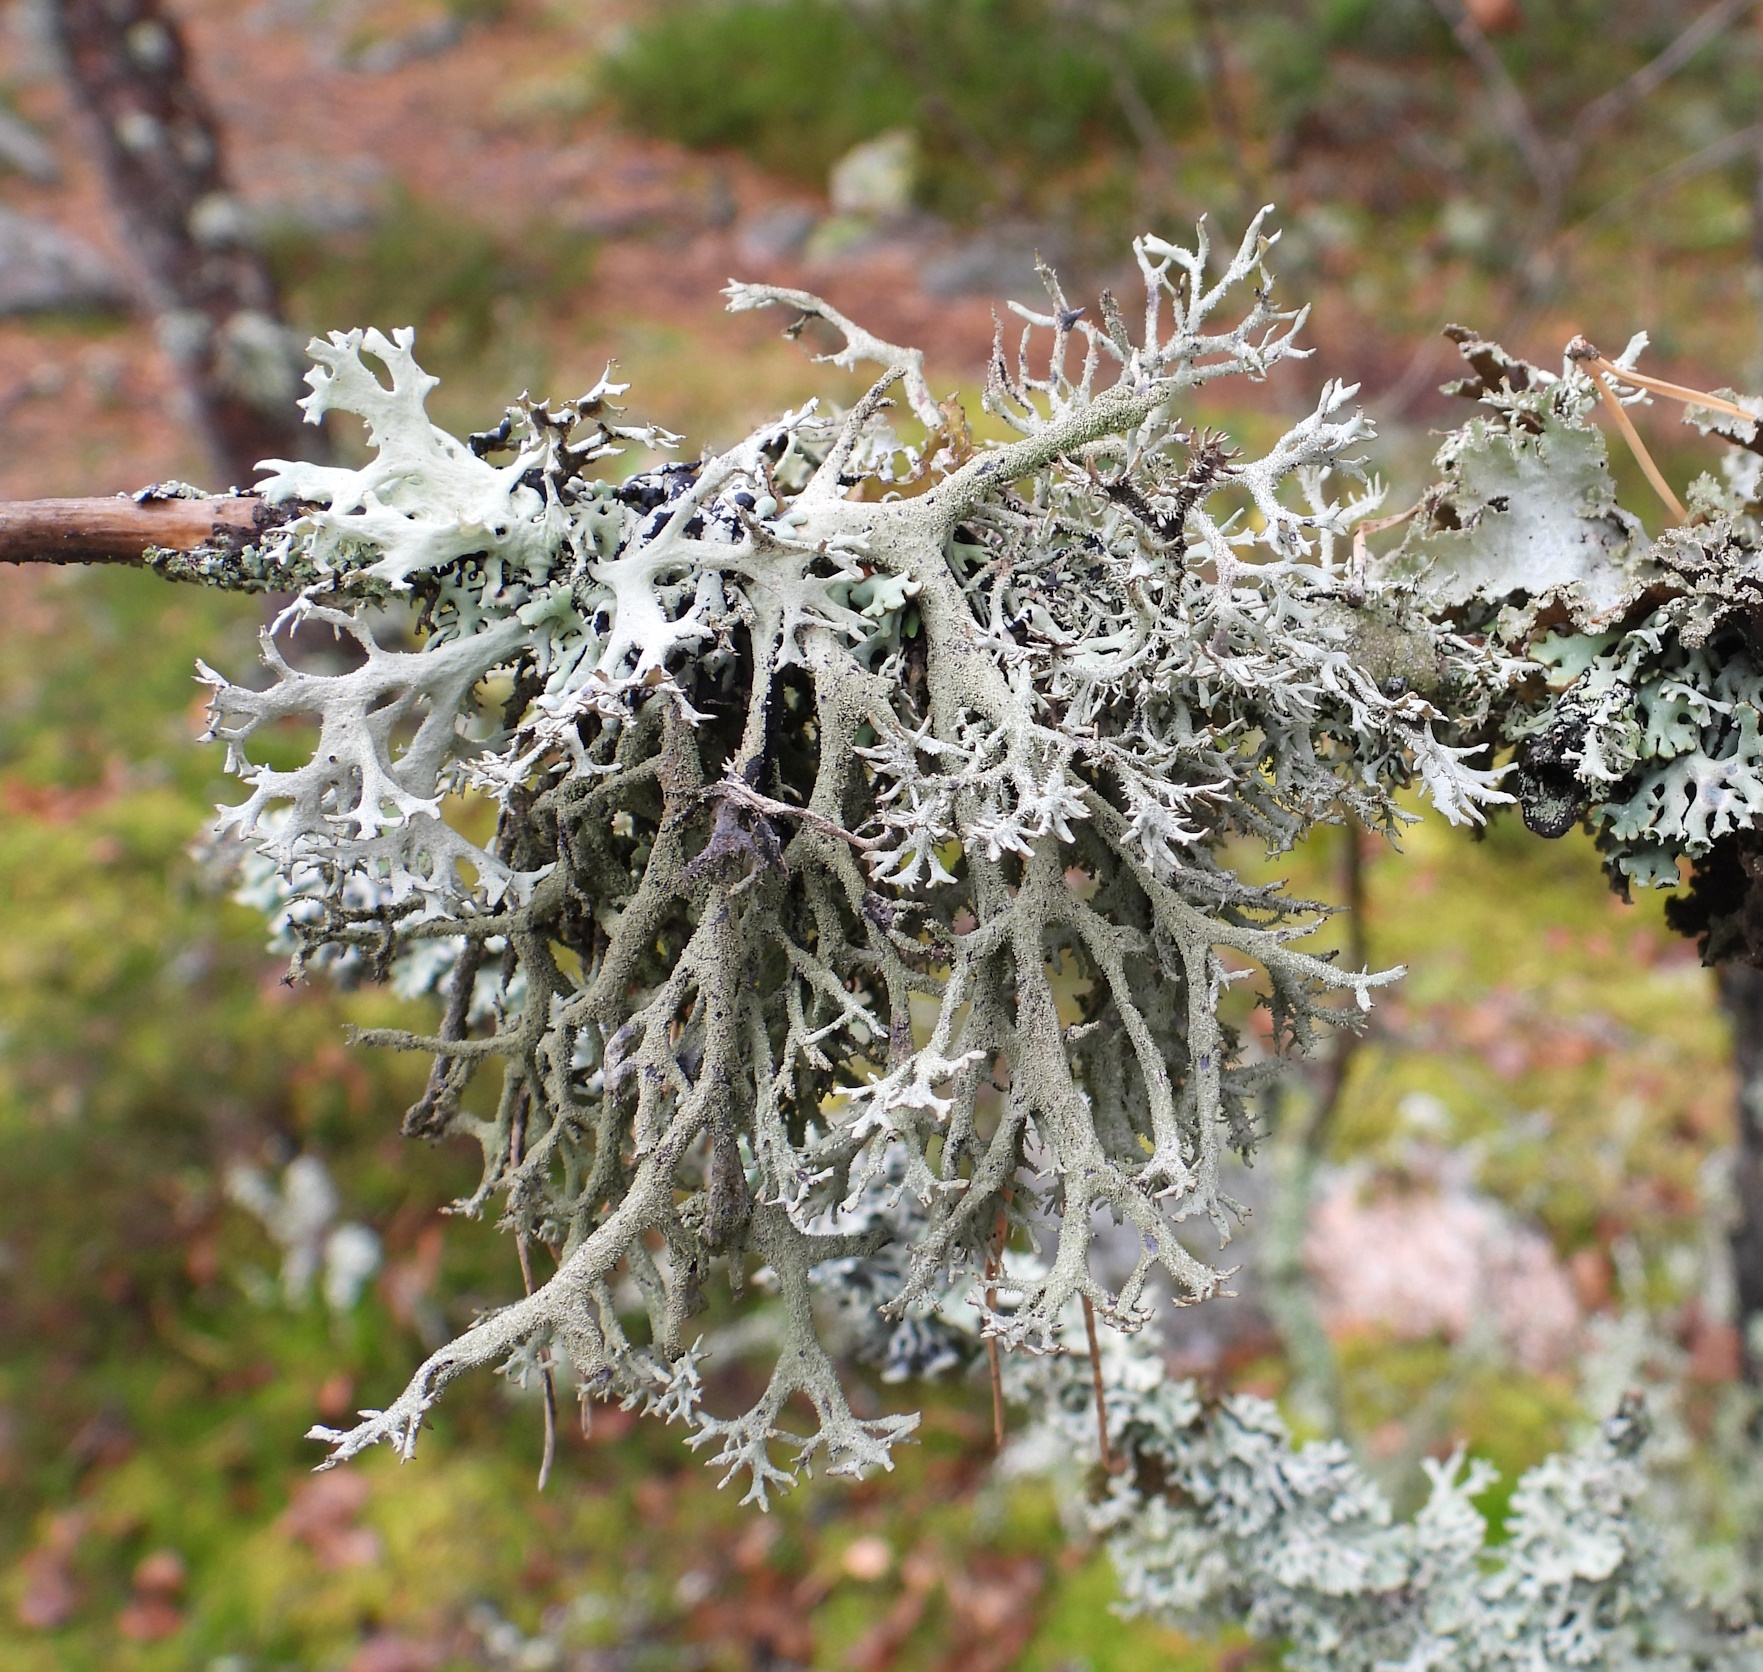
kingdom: Fungi
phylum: Ascomycota
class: Lecanoromycetes
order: Lecanorales
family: Parmeliaceae
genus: Pseudevernia
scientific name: Pseudevernia furfuracea
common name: Tree moss
